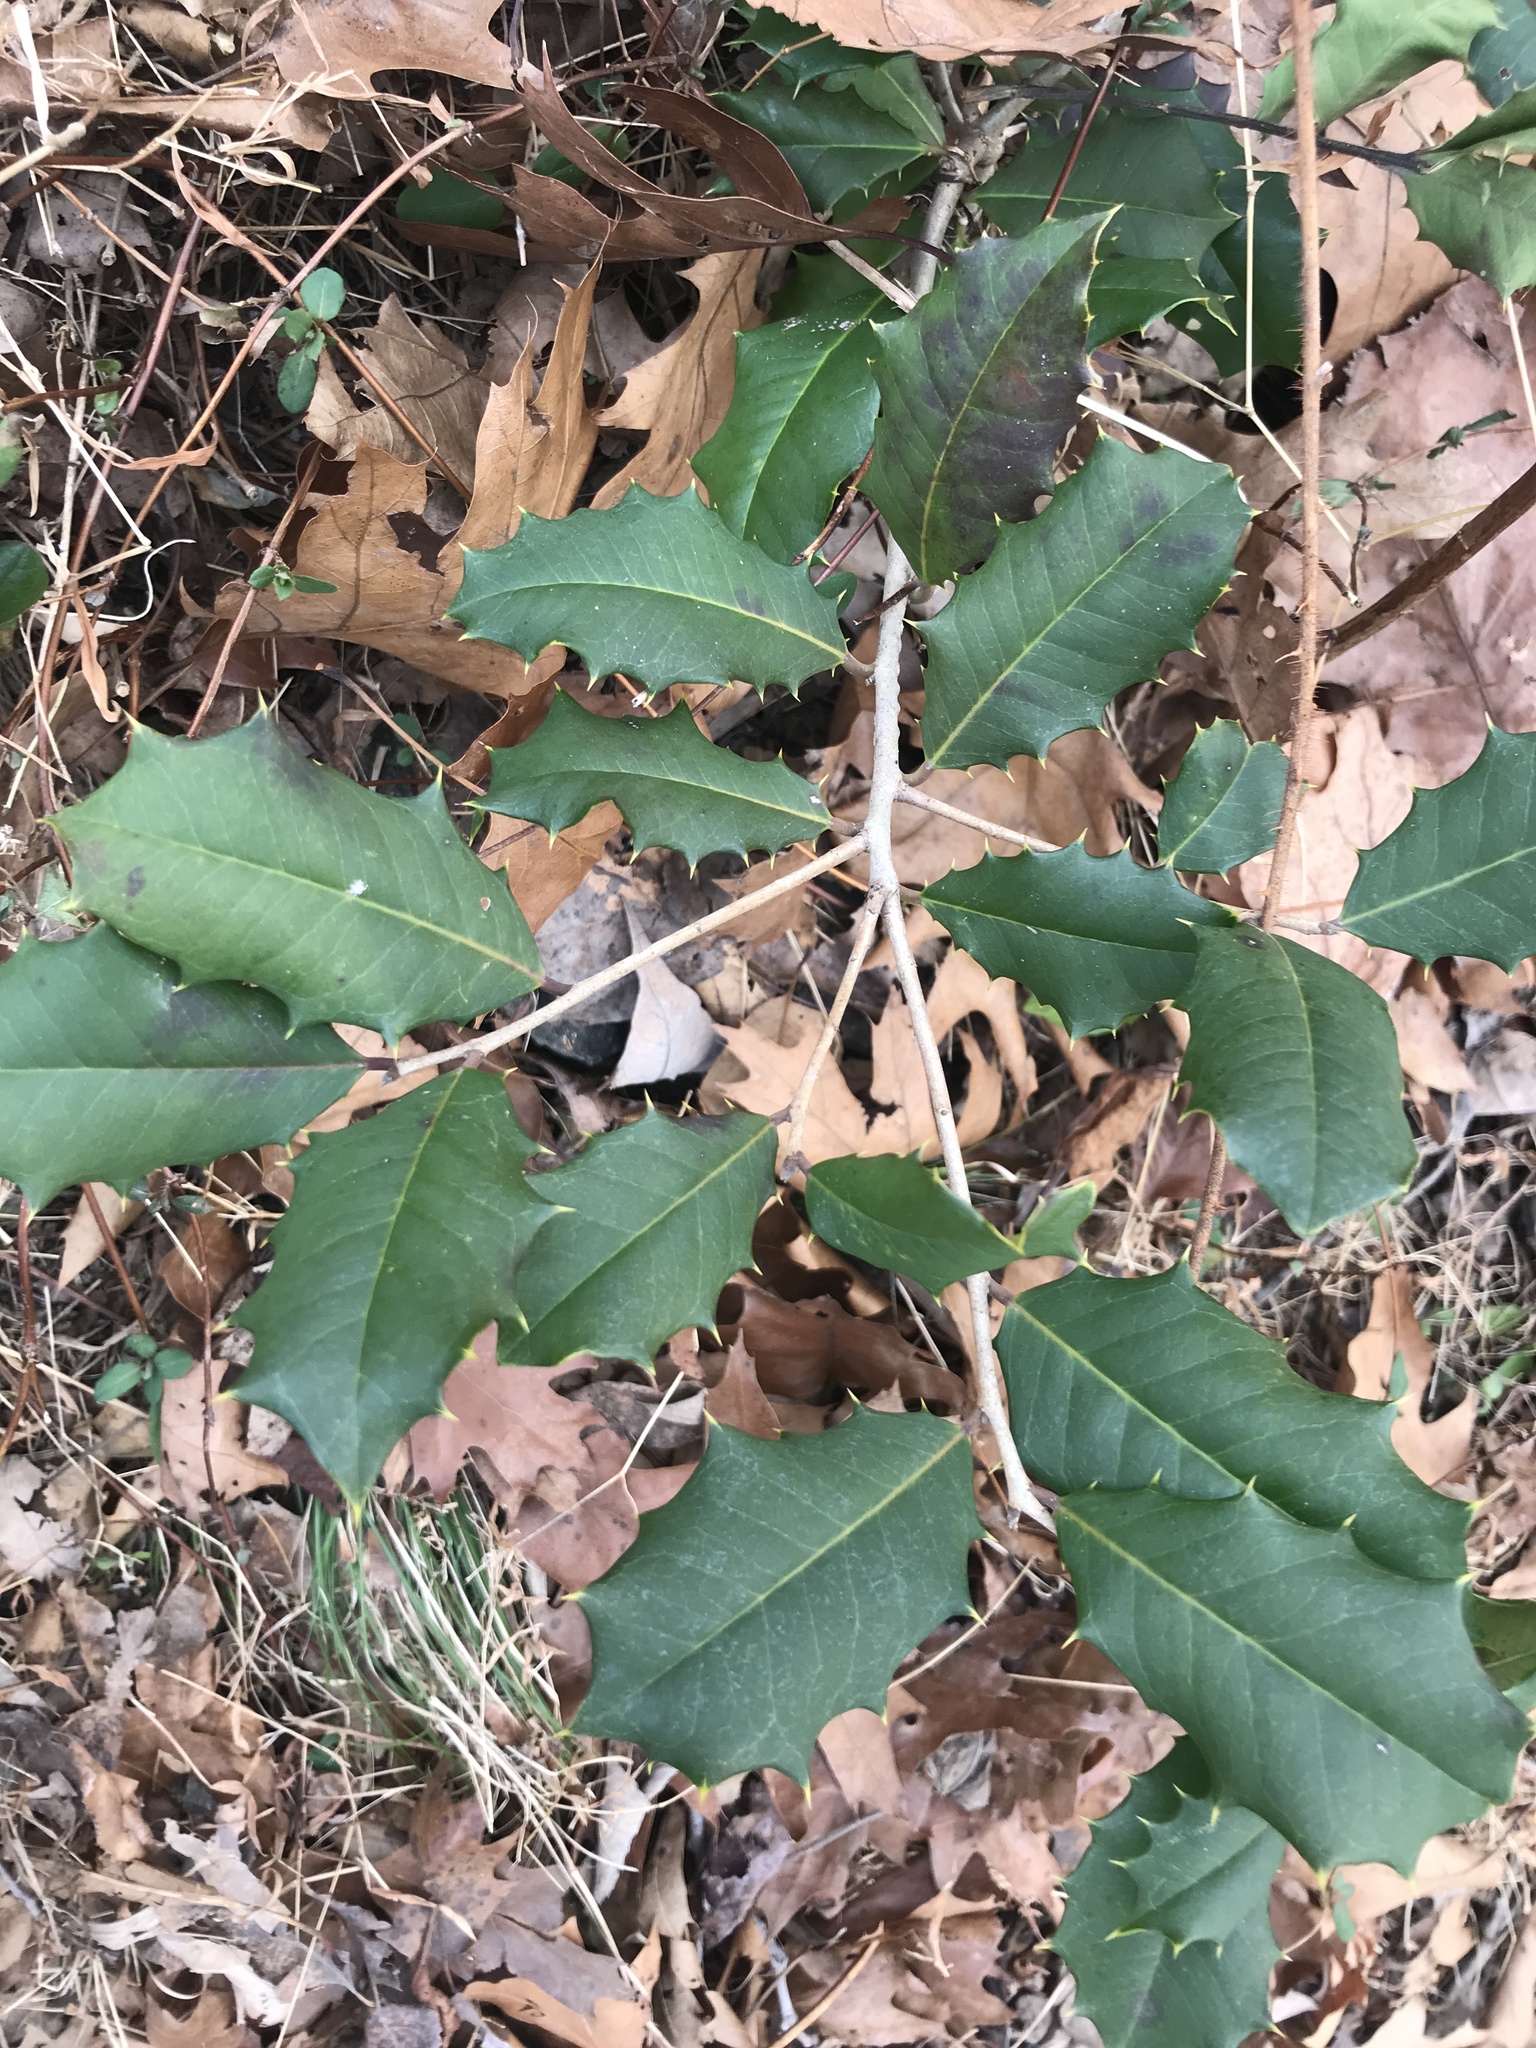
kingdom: Plantae
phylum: Tracheophyta
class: Magnoliopsida
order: Aquifoliales
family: Aquifoliaceae
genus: Ilex
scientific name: Ilex opaca
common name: American holly
